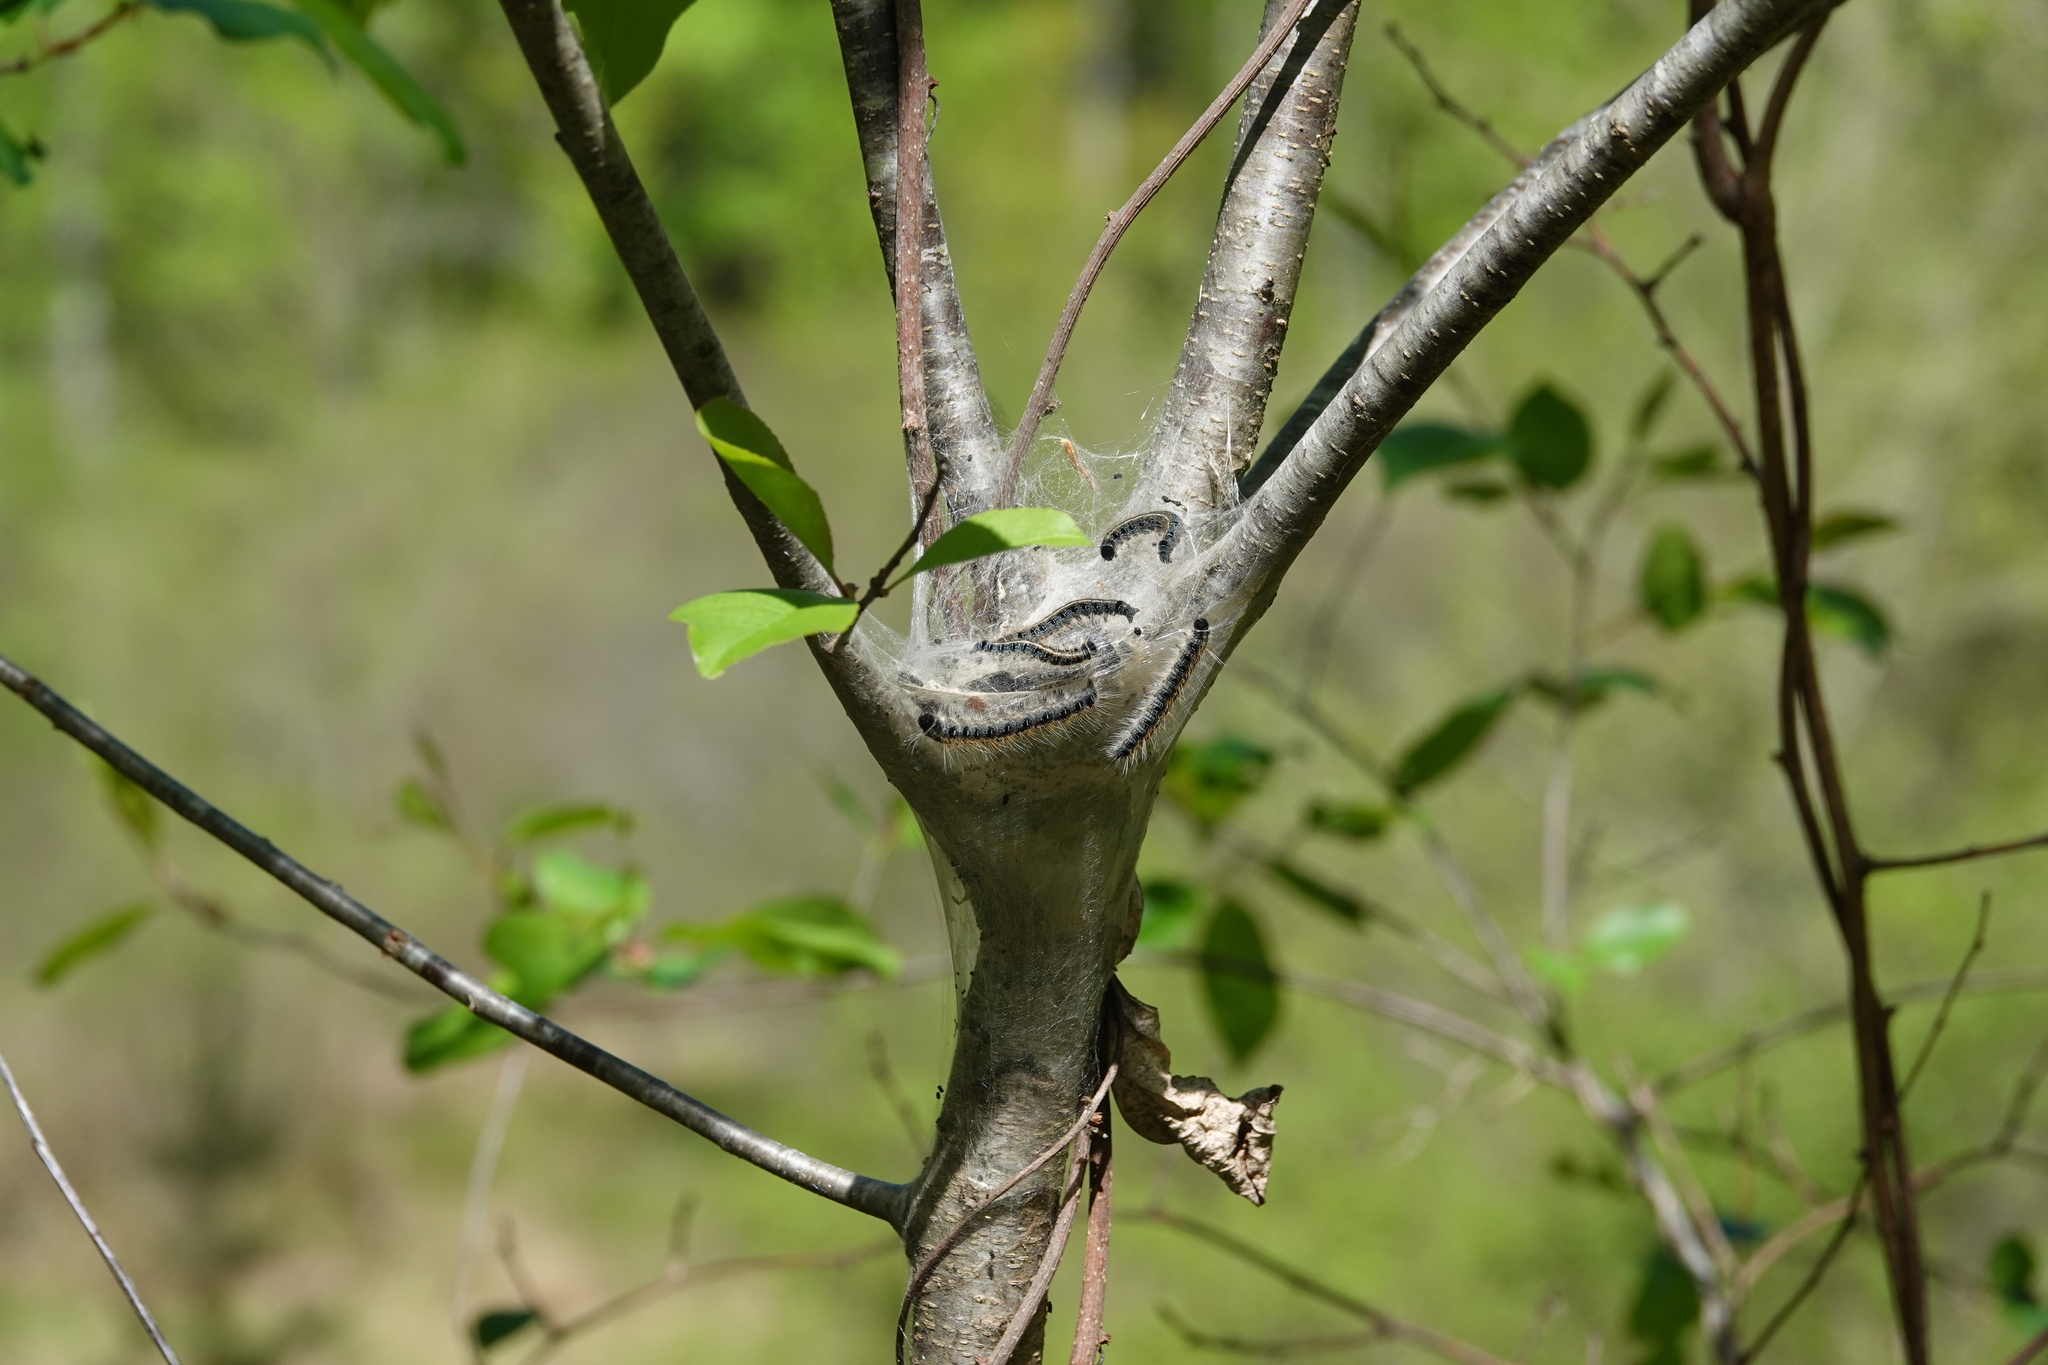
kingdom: Animalia
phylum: Arthropoda
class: Insecta
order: Lepidoptera
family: Lasiocampidae
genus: Malacosoma
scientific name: Malacosoma americana
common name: Eastern tent caterpillar moth
